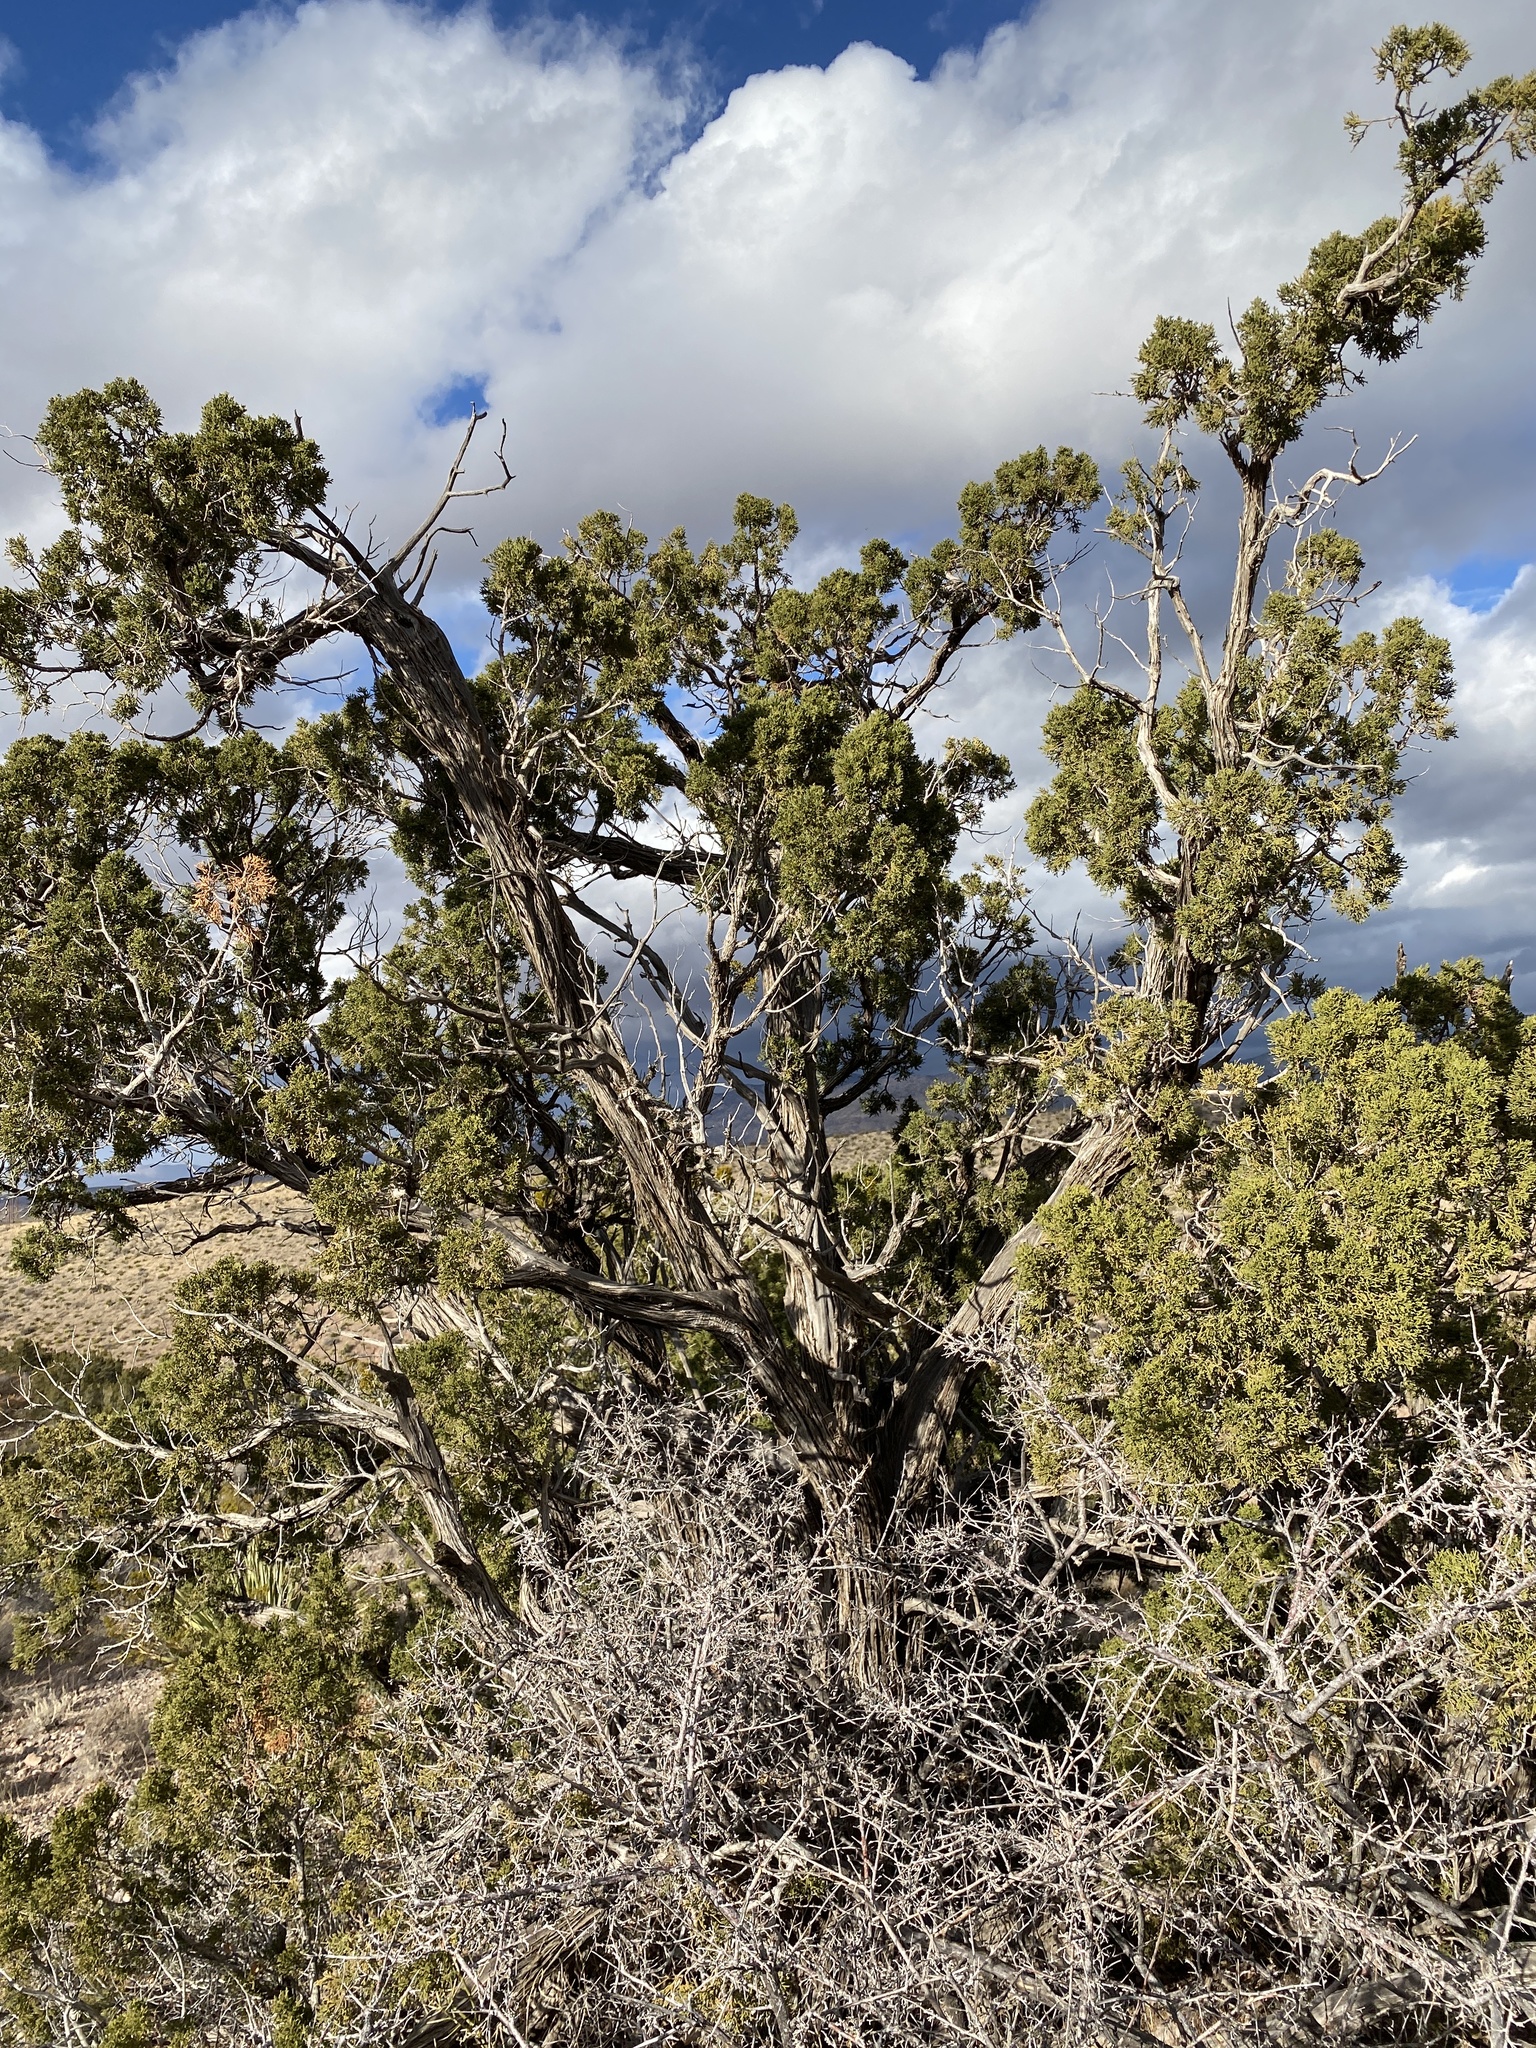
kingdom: Plantae
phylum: Tracheophyta
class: Pinopsida
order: Pinales
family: Cupressaceae
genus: Juniperus
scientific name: Juniperus monosperma
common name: One-seed juniper
